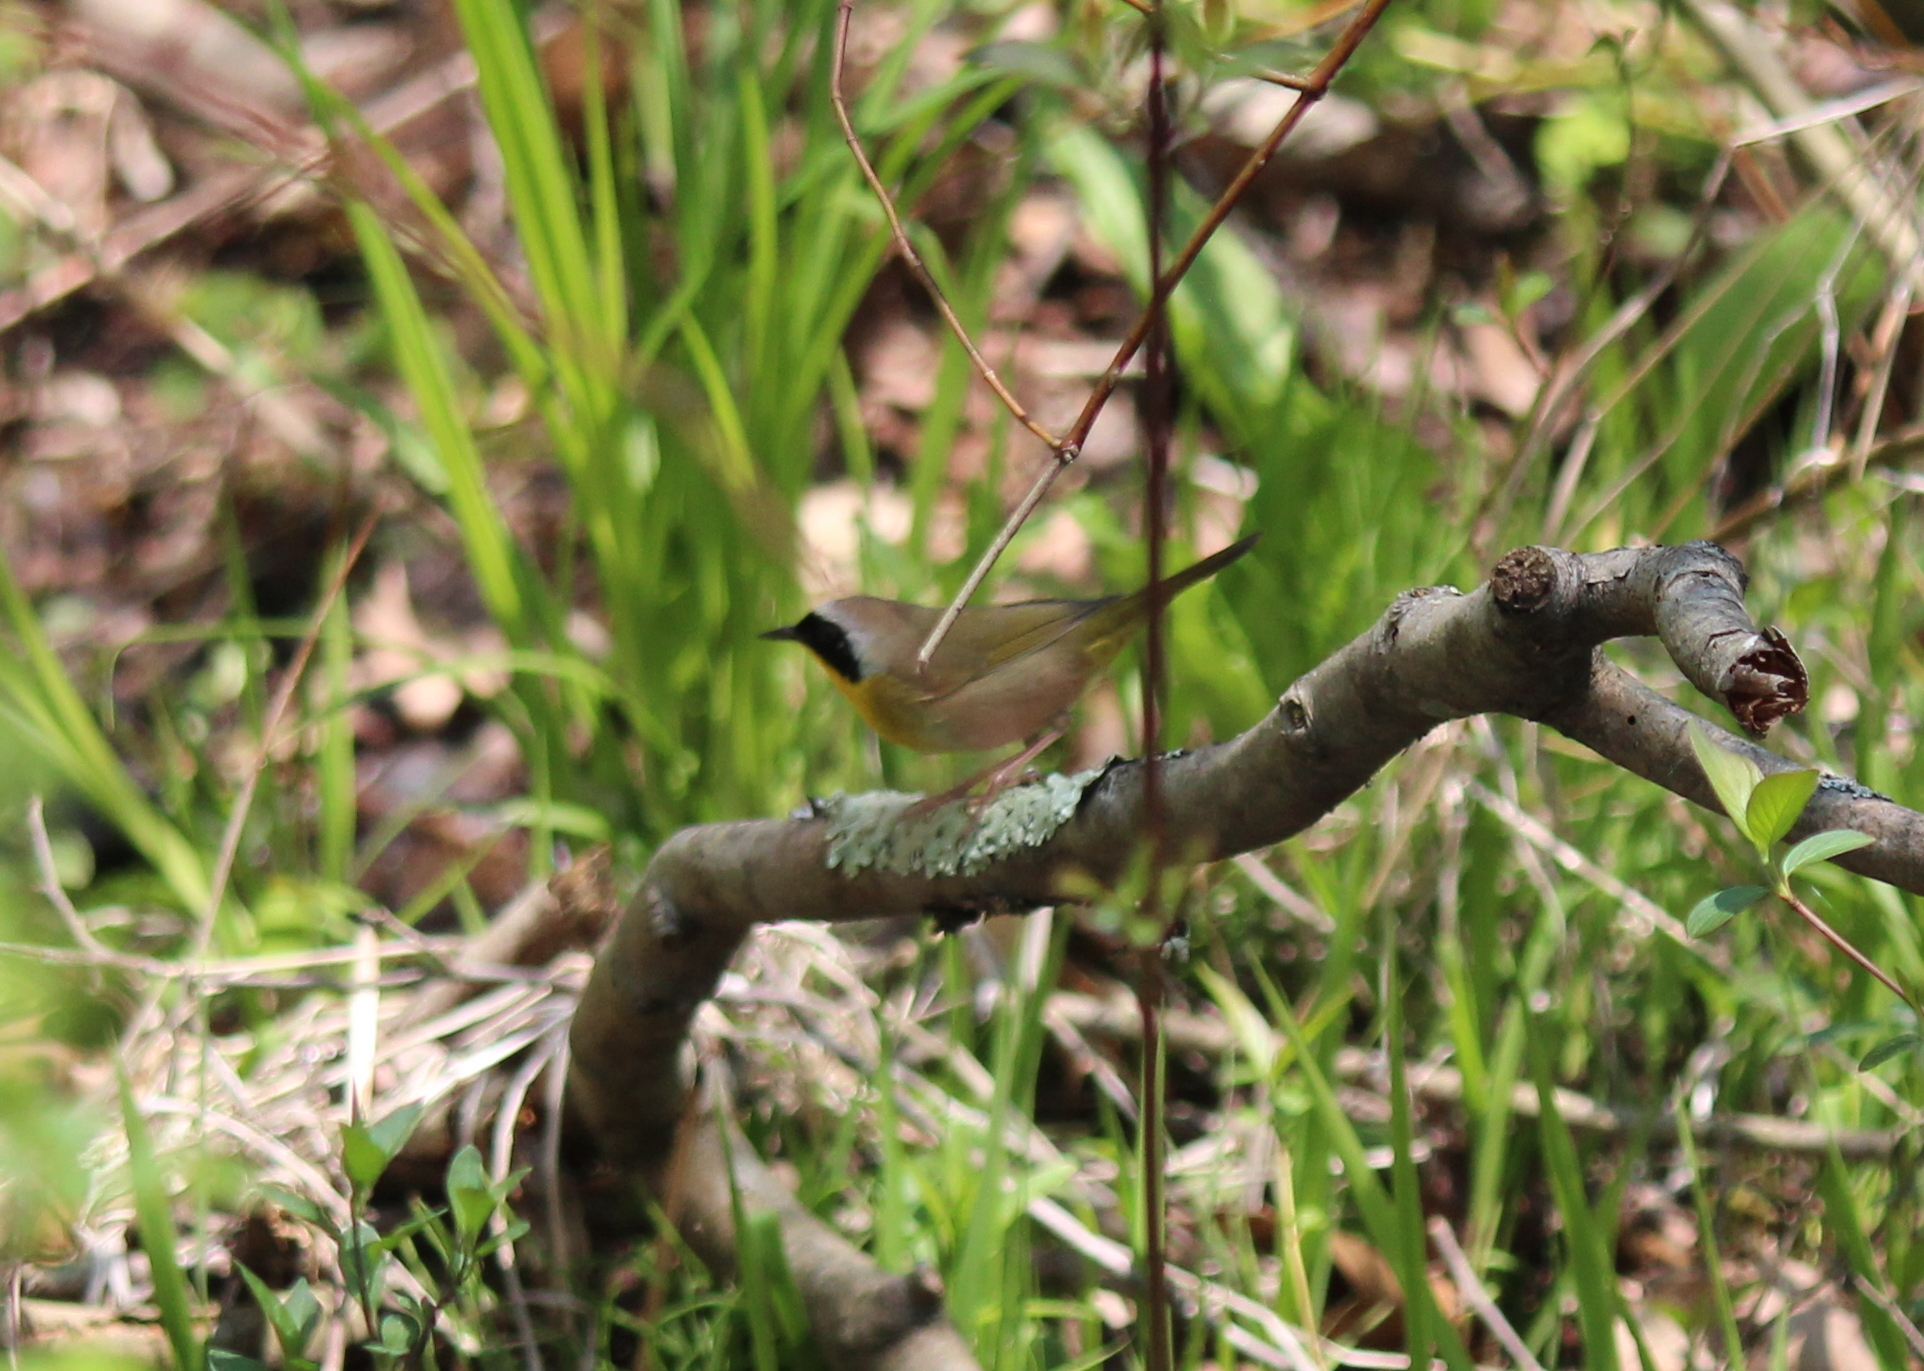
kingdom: Animalia
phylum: Chordata
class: Aves
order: Passeriformes
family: Parulidae
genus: Geothlypis
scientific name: Geothlypis trichas
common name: Common yellowthroat
